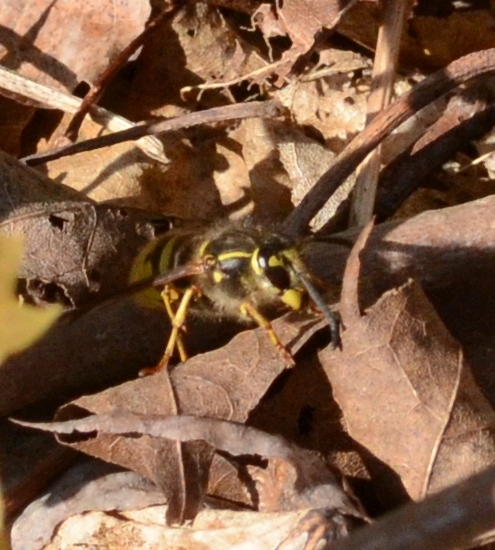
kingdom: Animalia
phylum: Arthropoda
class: Insecta
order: Hymenoptera
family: Vespidae
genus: Vespula
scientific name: Vespula vulgaris
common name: Common wasp
